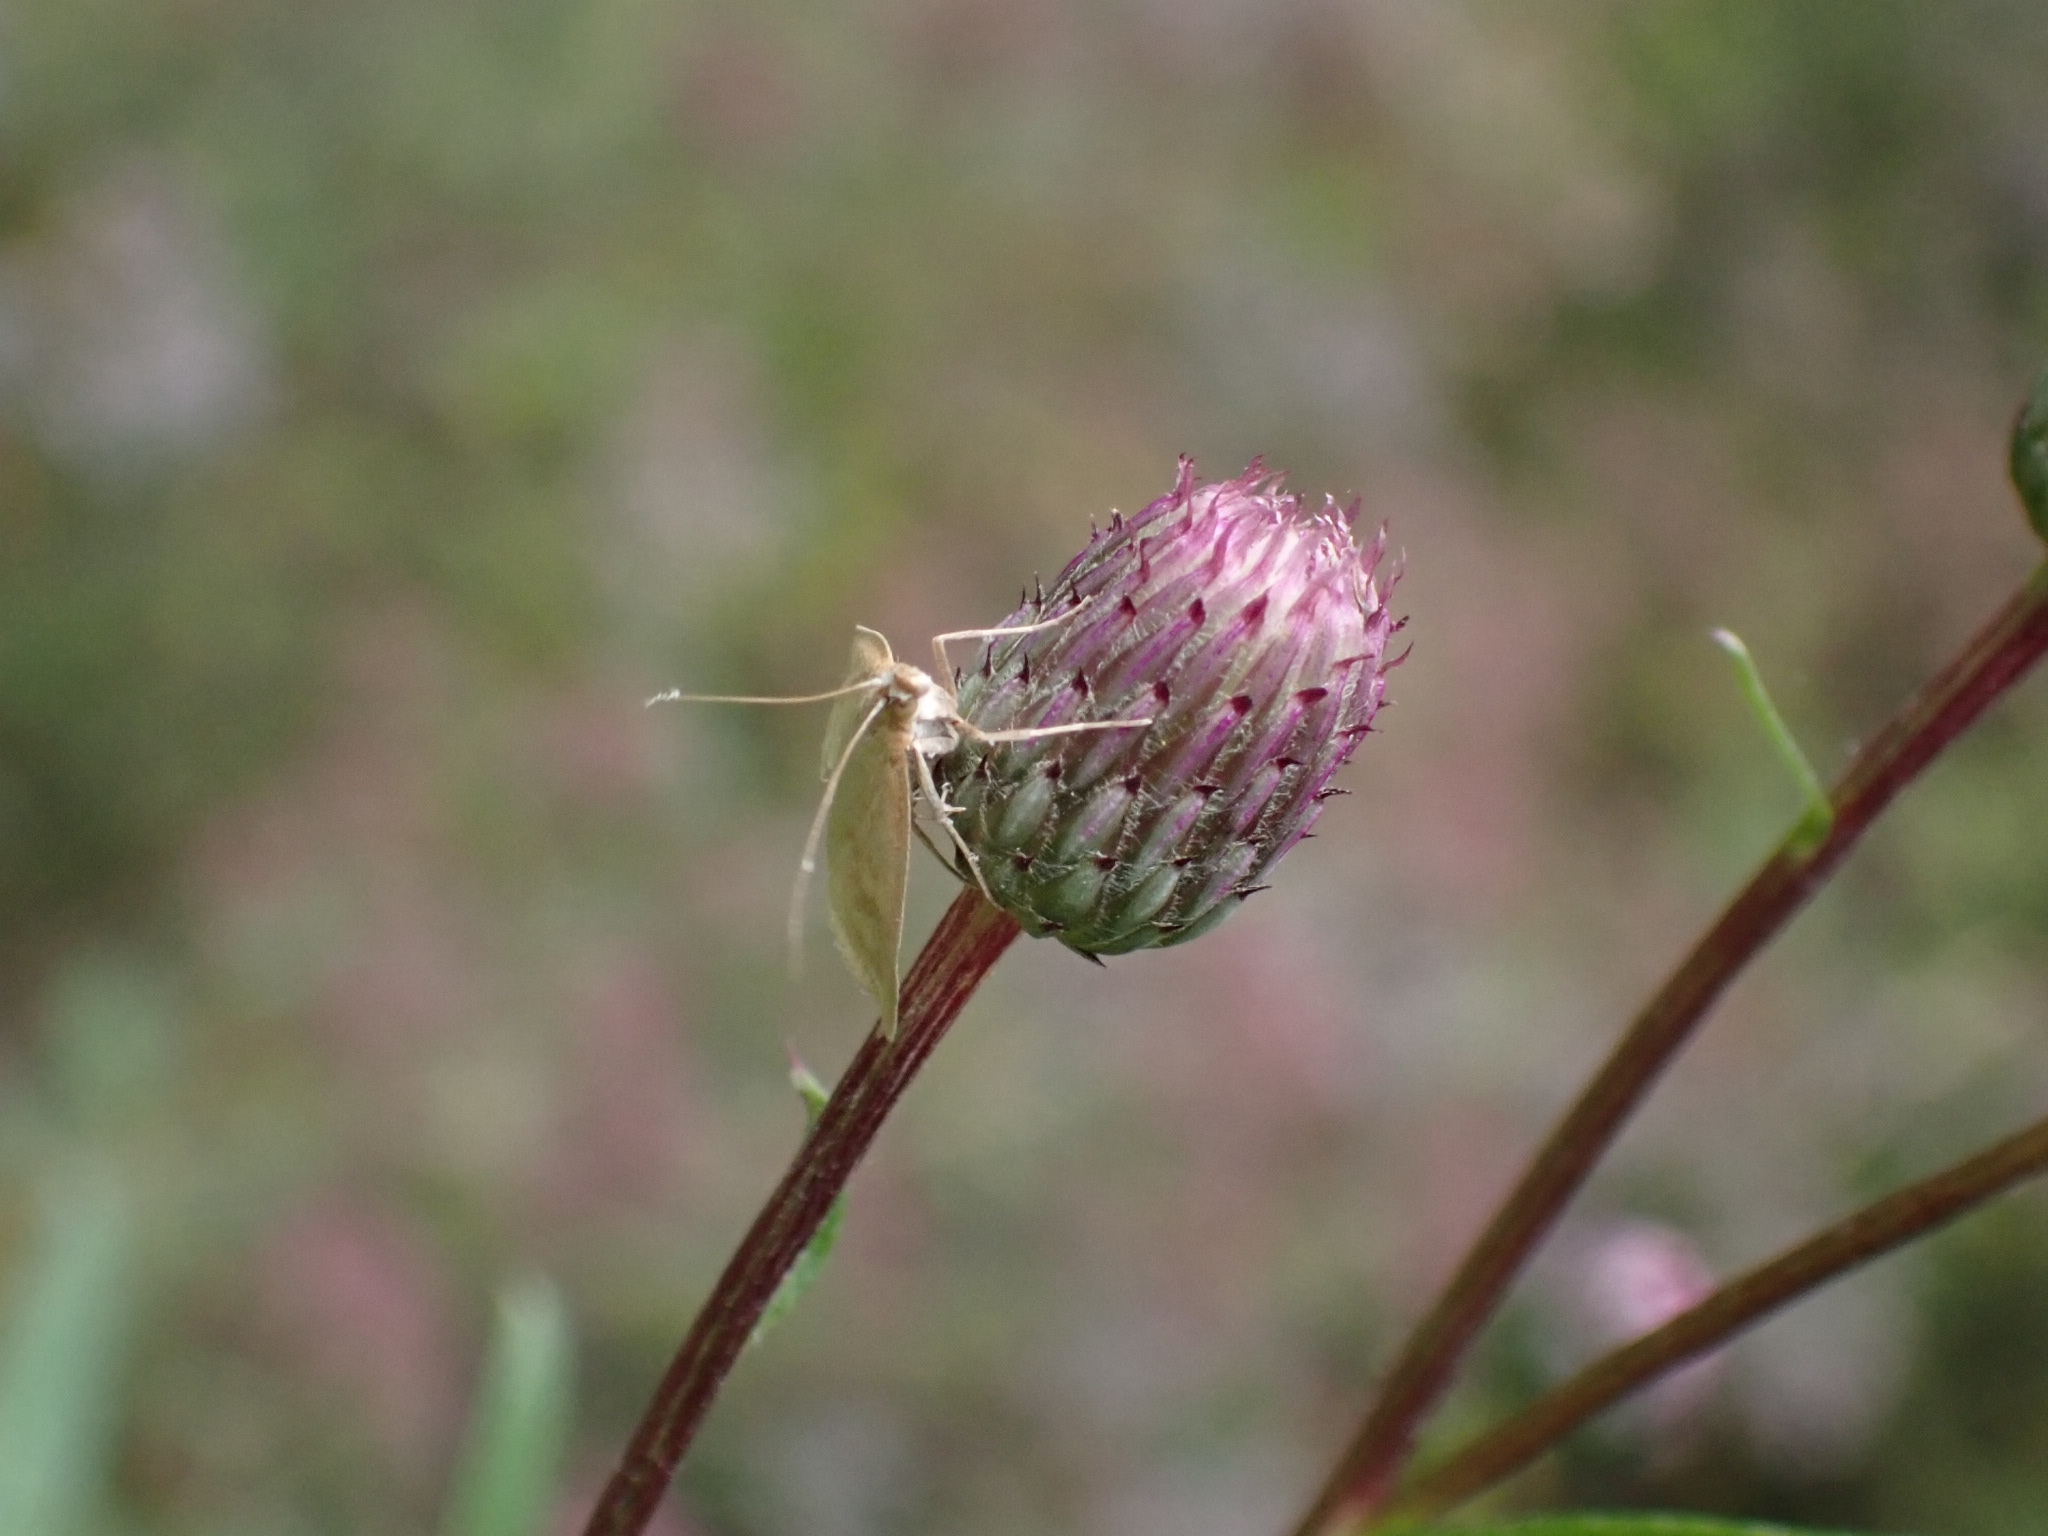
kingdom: Animalia
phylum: Arthropoda
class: Insecta
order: Lepidoptera
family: Crambidae
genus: Udea
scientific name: Udea lutealis
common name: Pale straw pearl
